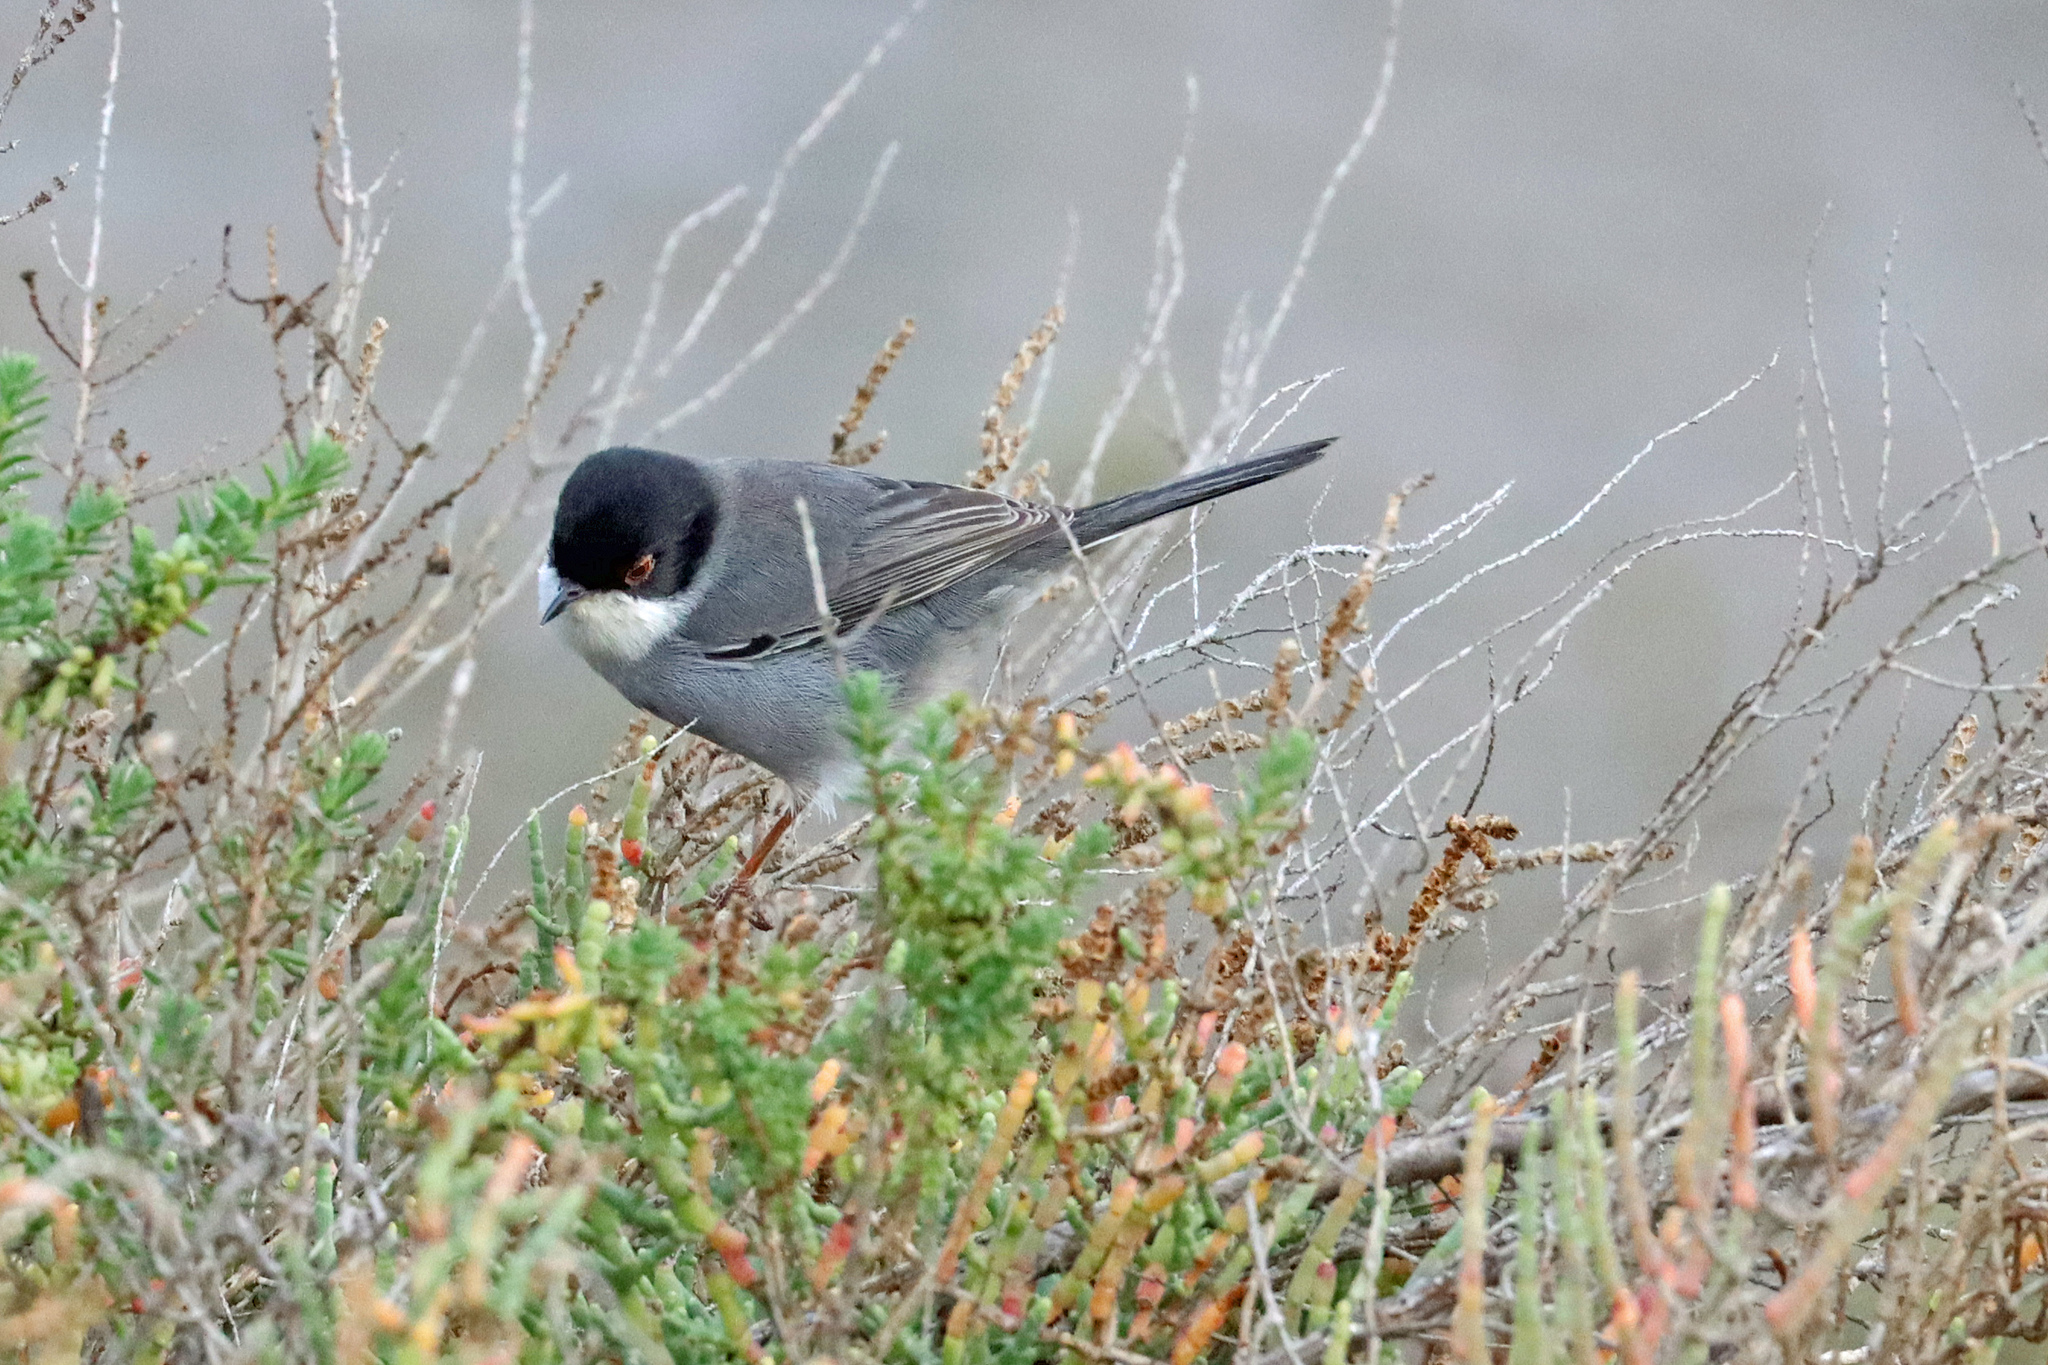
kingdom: Animalia
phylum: Chordata
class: Aves
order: Passeriformes
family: Sylviidae
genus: Curruca
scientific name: Curruca melanocephala
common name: Sardinian warbler
